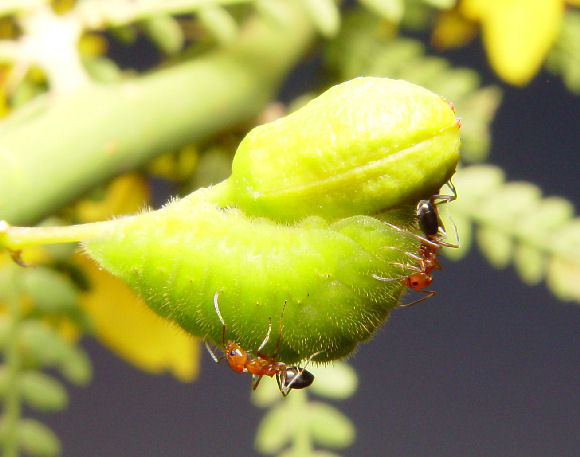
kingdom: Animalia
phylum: Arthropoda
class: Insecta
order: Hymenoptera
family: Formicidae
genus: Dorymyrmex
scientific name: Dorymyrmex bicolor
